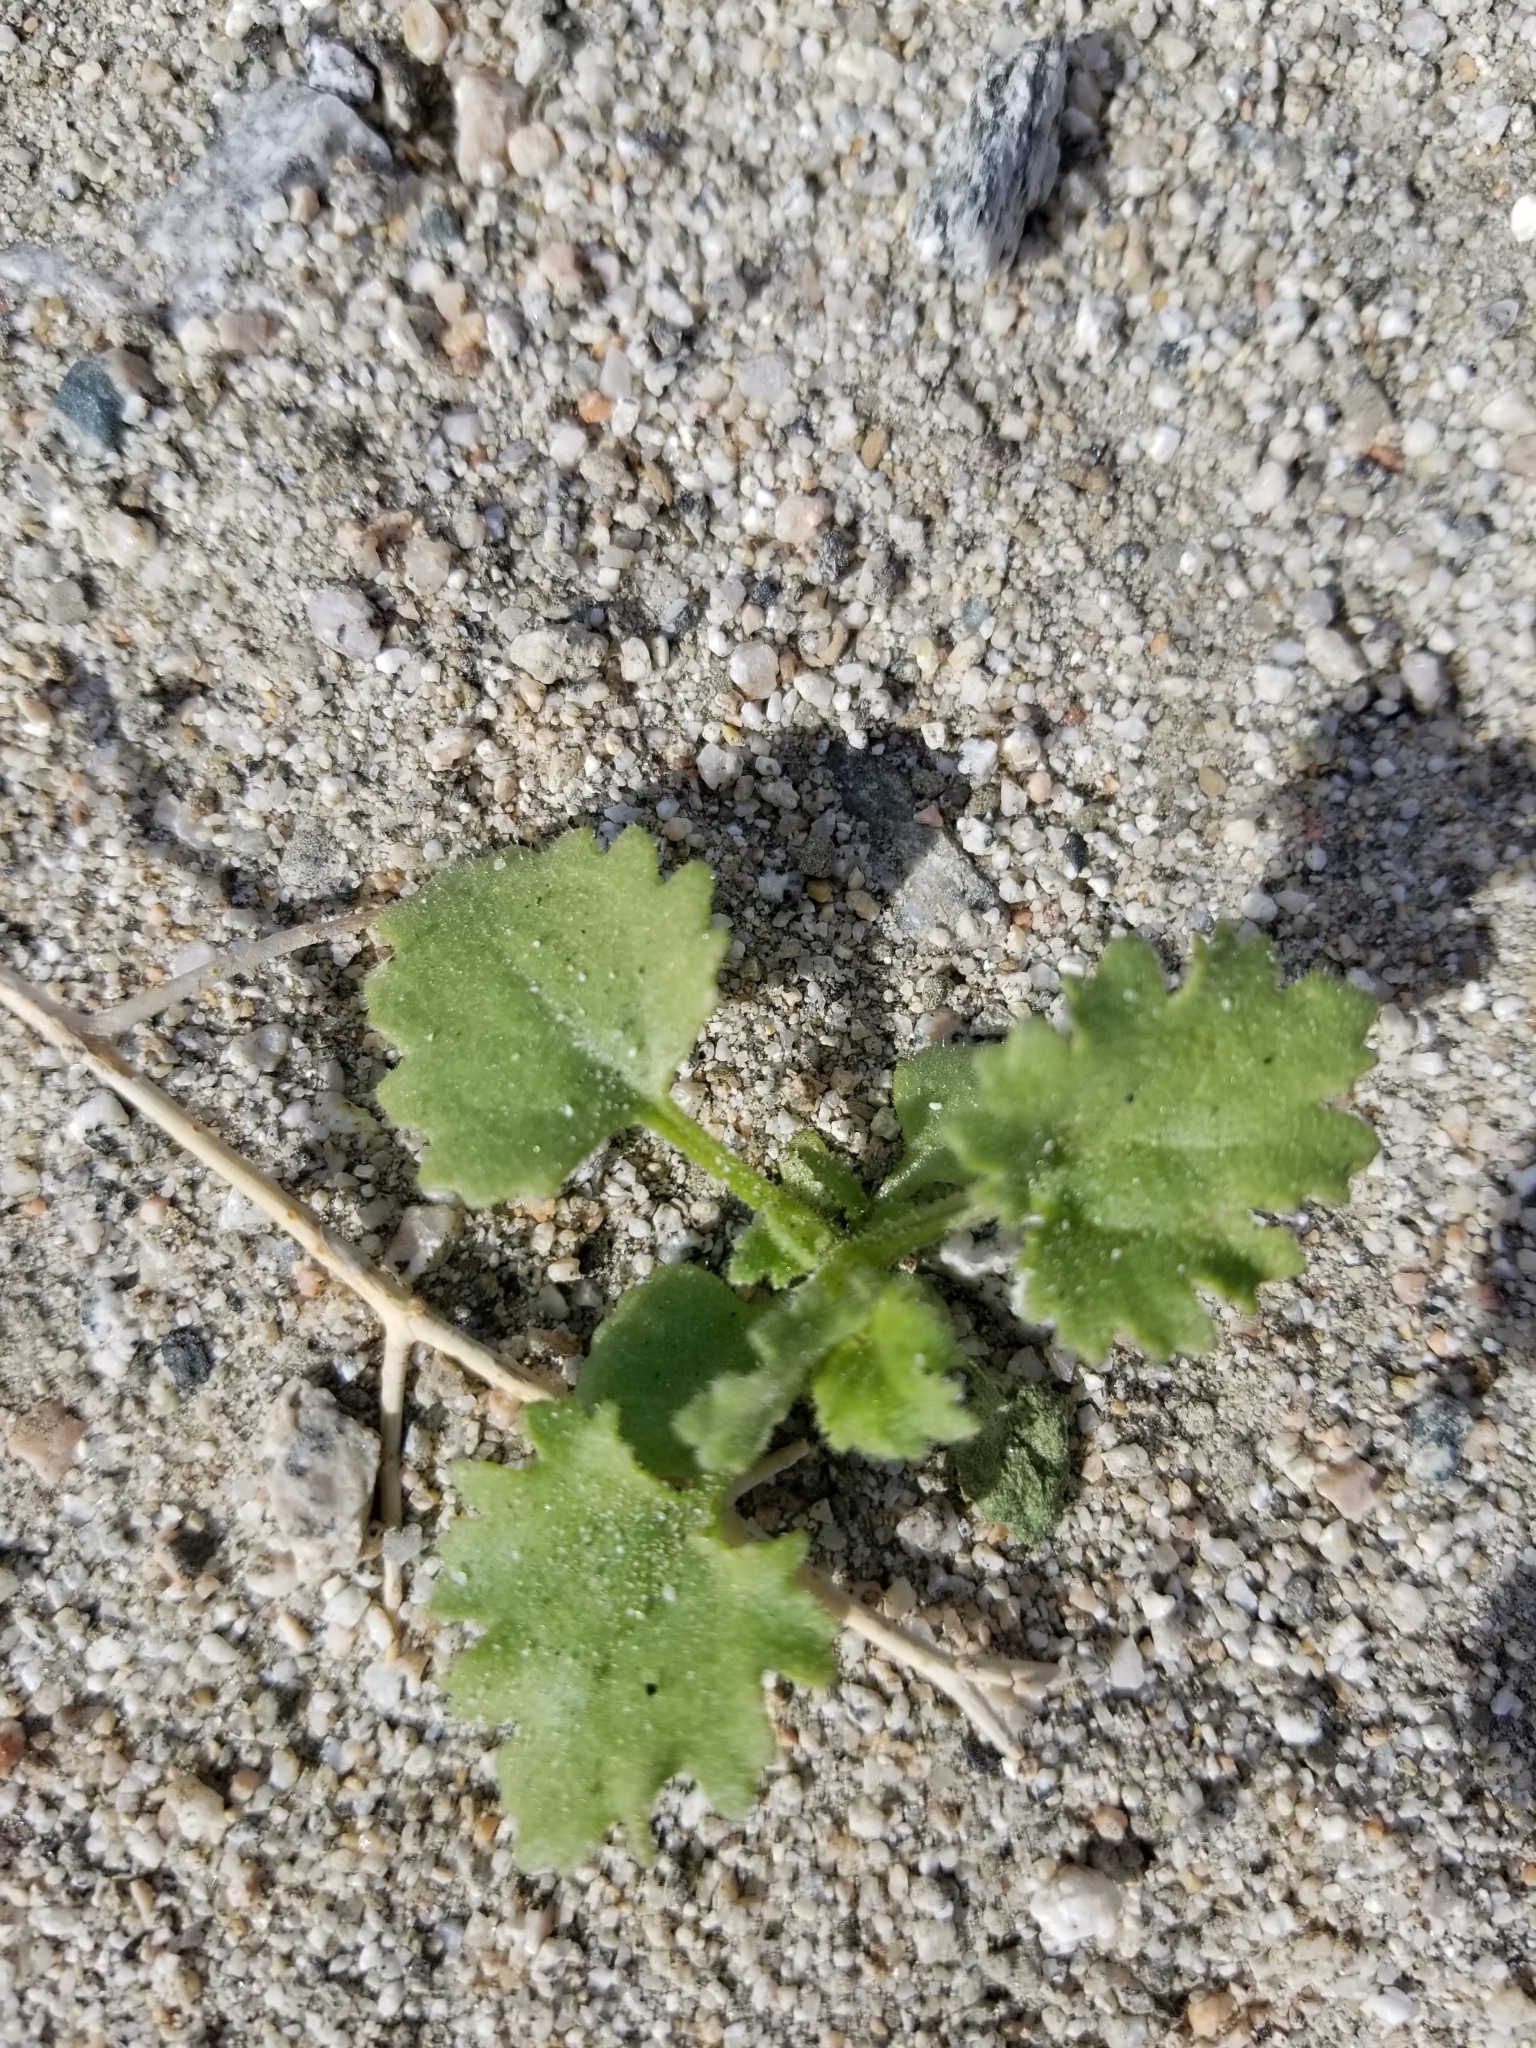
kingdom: Plantae
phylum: Tracheophyta
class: Magnoliopsida
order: Asterales
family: Asteraceae
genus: Laphamia
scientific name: Laphamia emoryi
